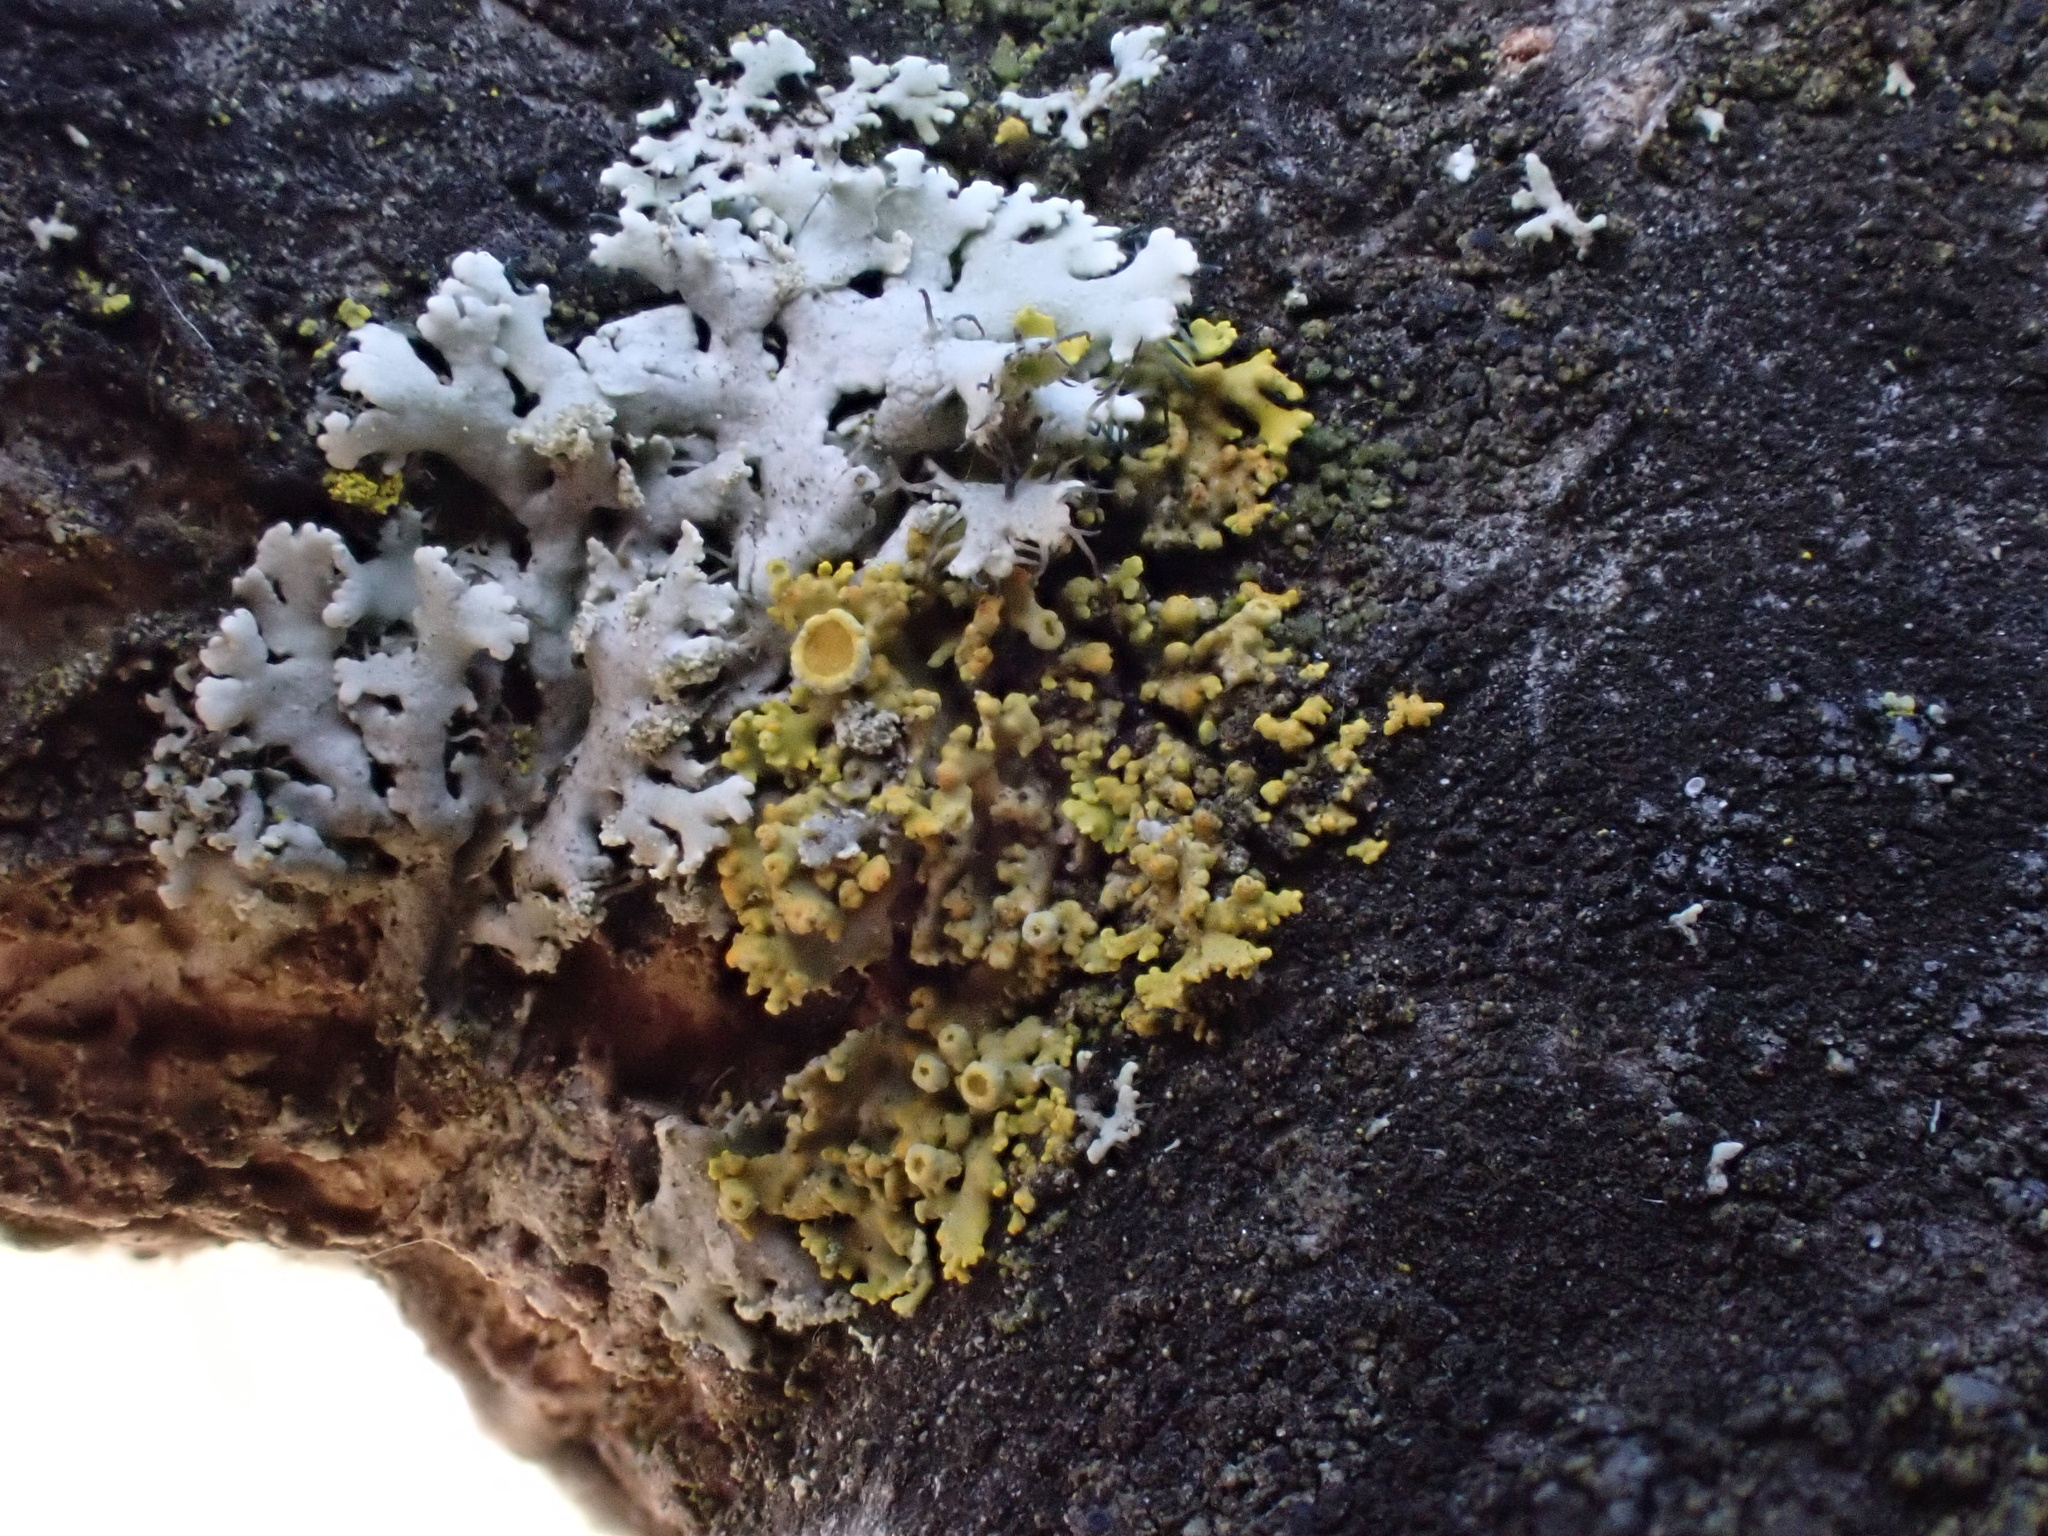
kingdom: Fungi
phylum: Ascomycota
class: Lecanoromycetes
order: Teloschistales
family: Teloschistaceae
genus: Polycauliona
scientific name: Polycauliona polycarpa
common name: Pin-cushion sunburst lichen
